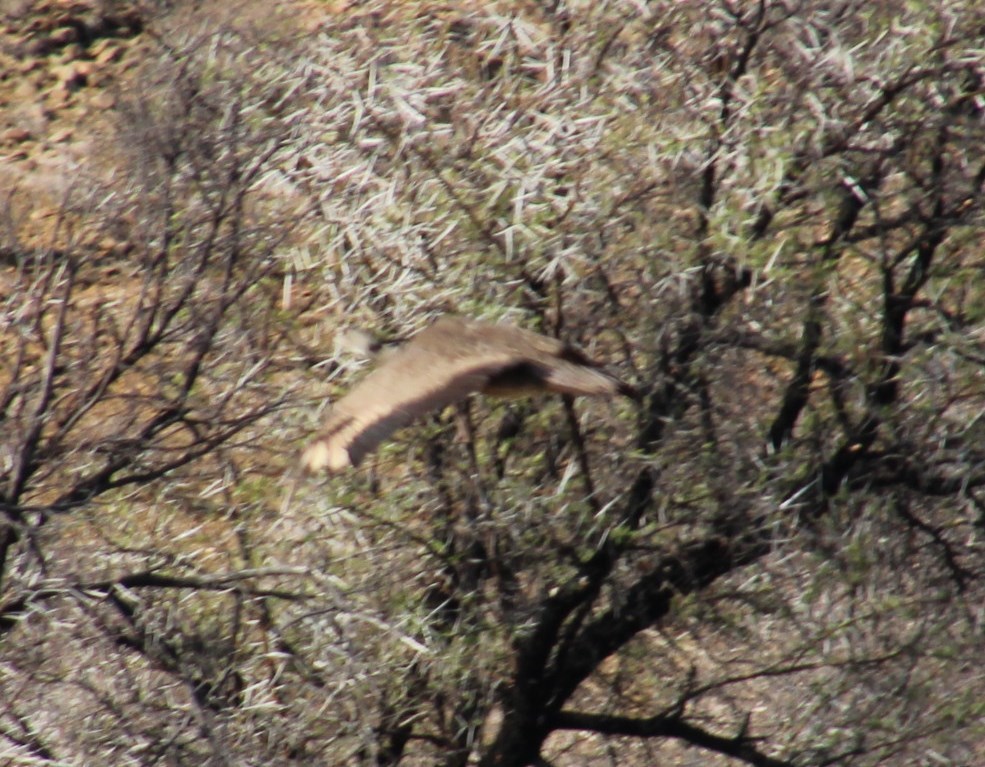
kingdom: Animalia
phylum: Chordata
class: Aves
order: Otidiformes
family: Otididae
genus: Eupodotis
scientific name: Eupodotis vigorsii
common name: Karoo korhaan
